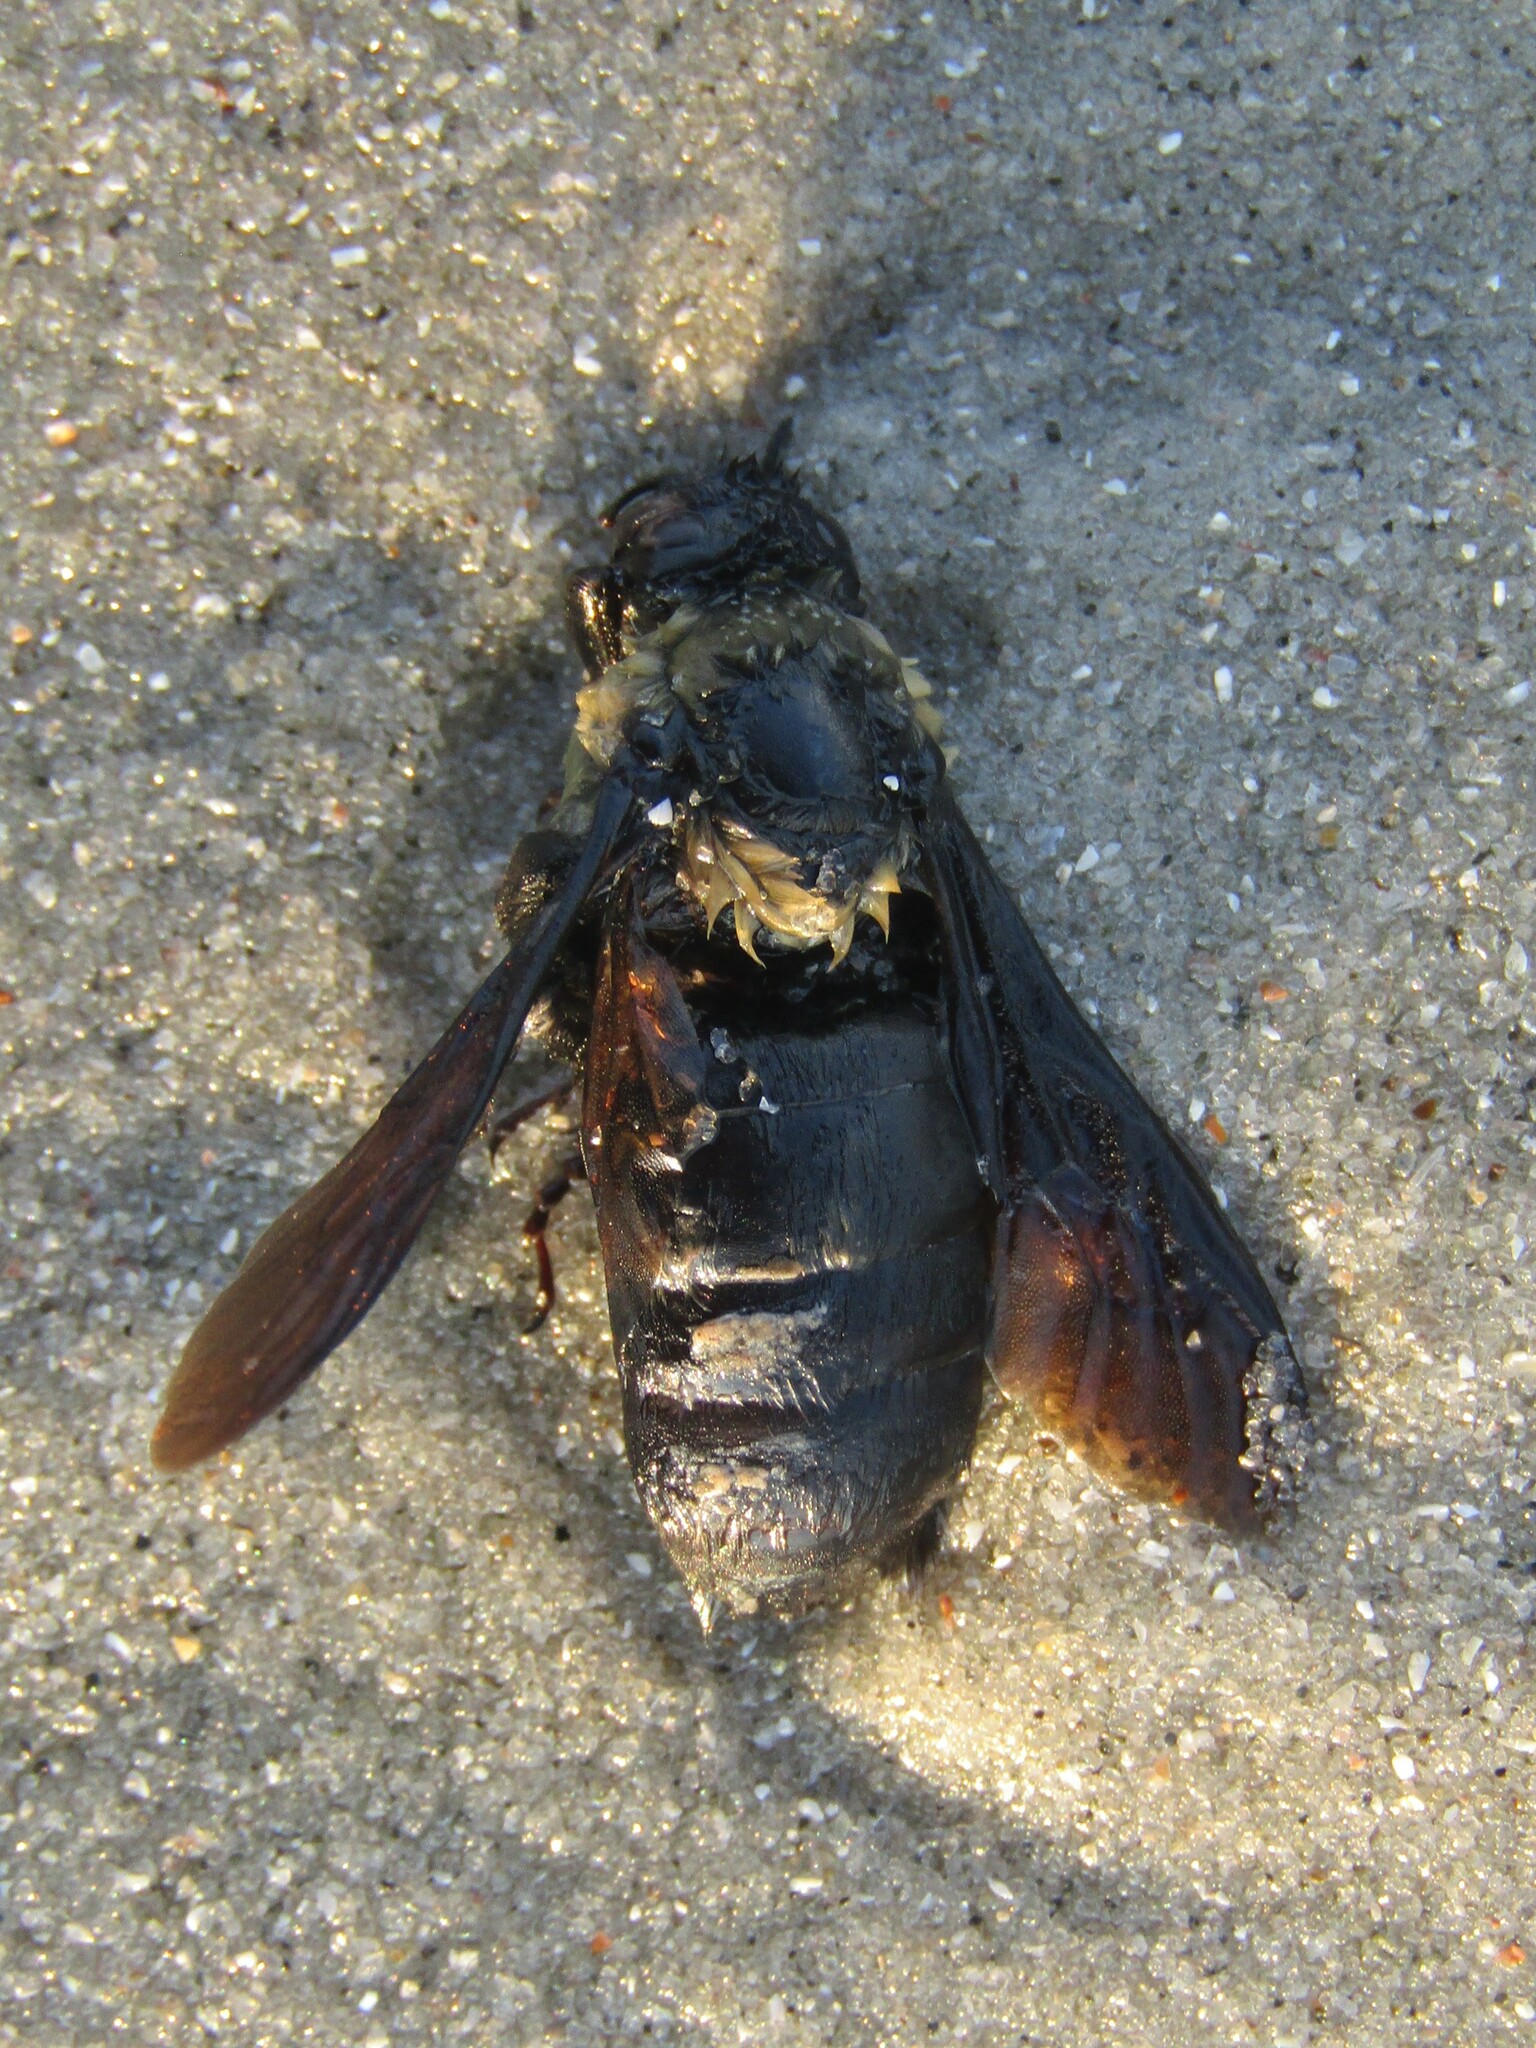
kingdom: Animalia
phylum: Arthropoda
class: Insecta
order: Hymenoptera
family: Apidae
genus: Xylocopa
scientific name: Xylocopa virginica
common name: Carpenter bee
